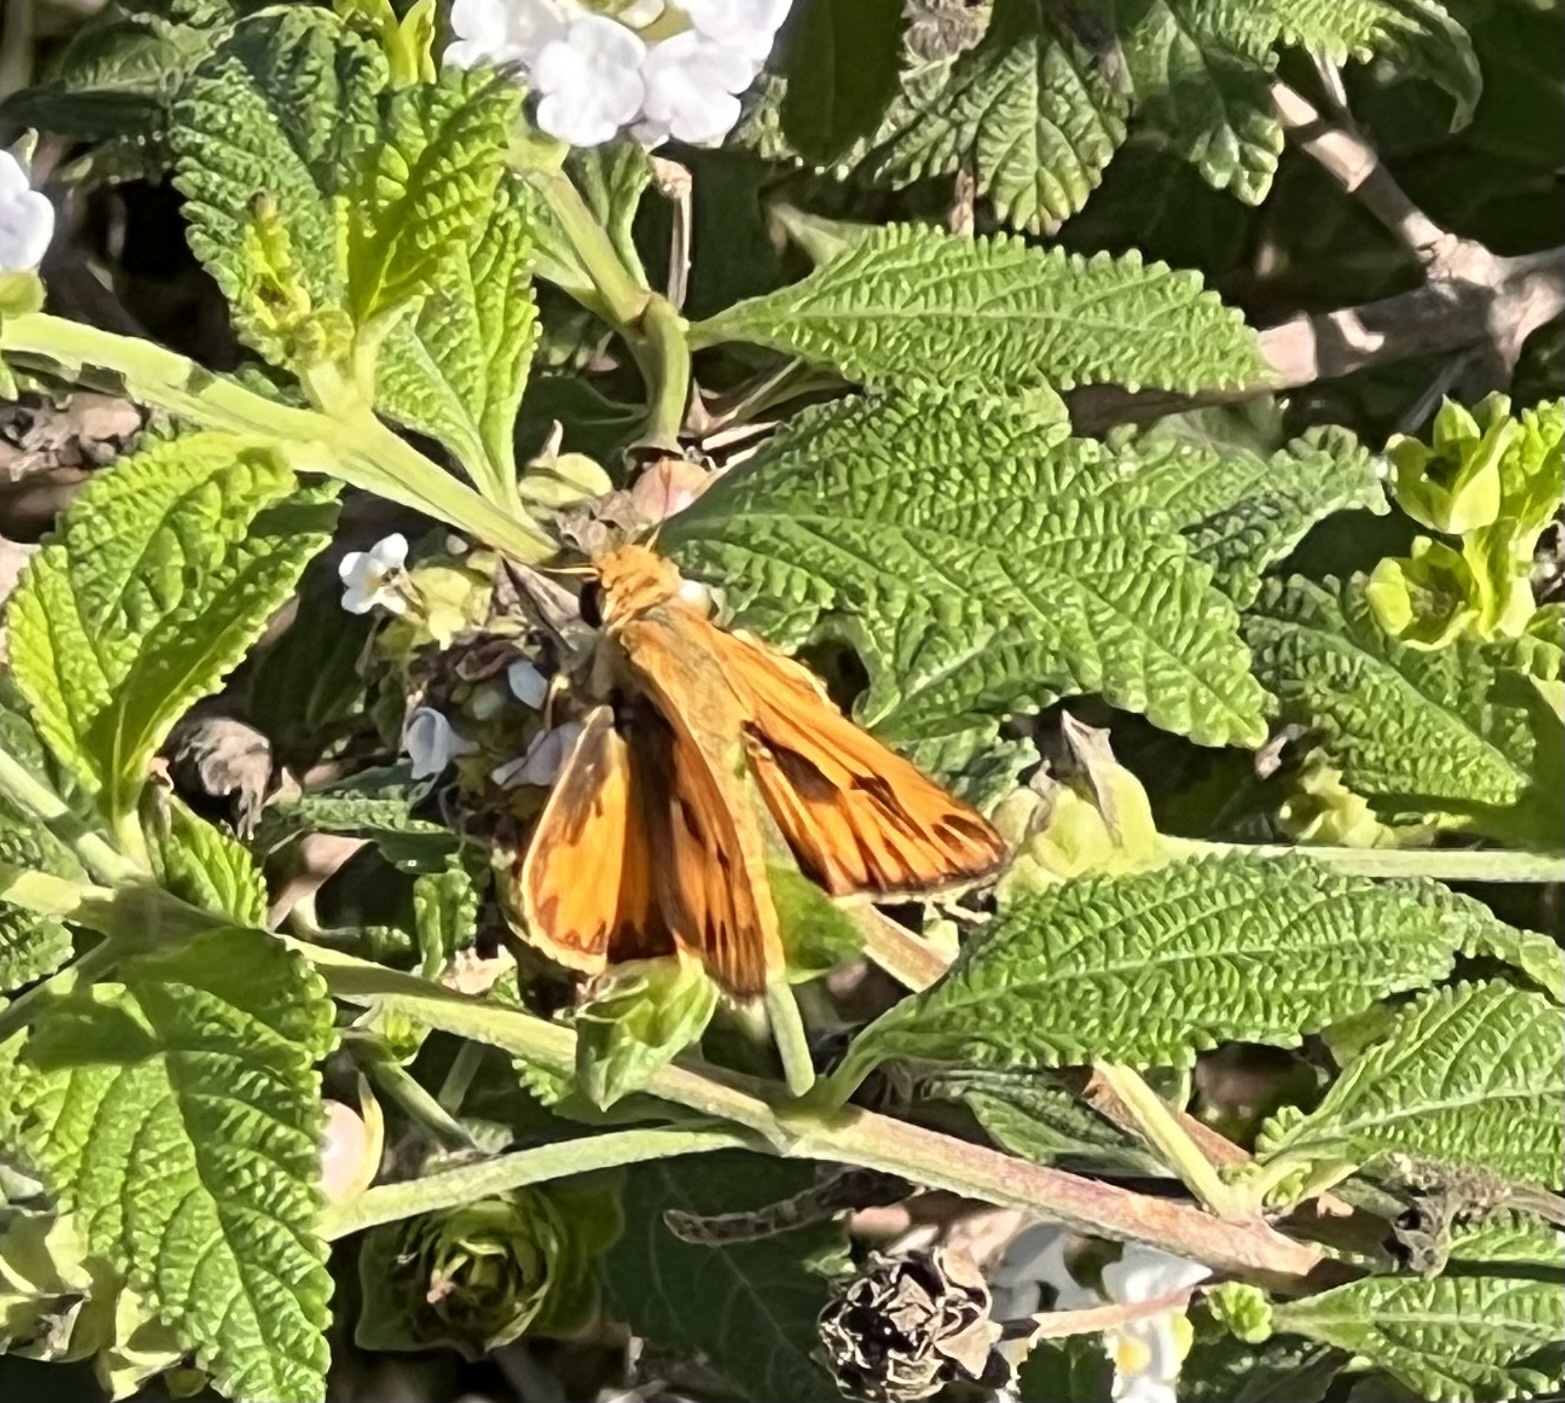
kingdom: Animalia
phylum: Arthropoda
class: Insecta
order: Lepidoptera
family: Hesperiidae
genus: Hylephila
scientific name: Hylephila phyleus
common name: Fiery skipper
